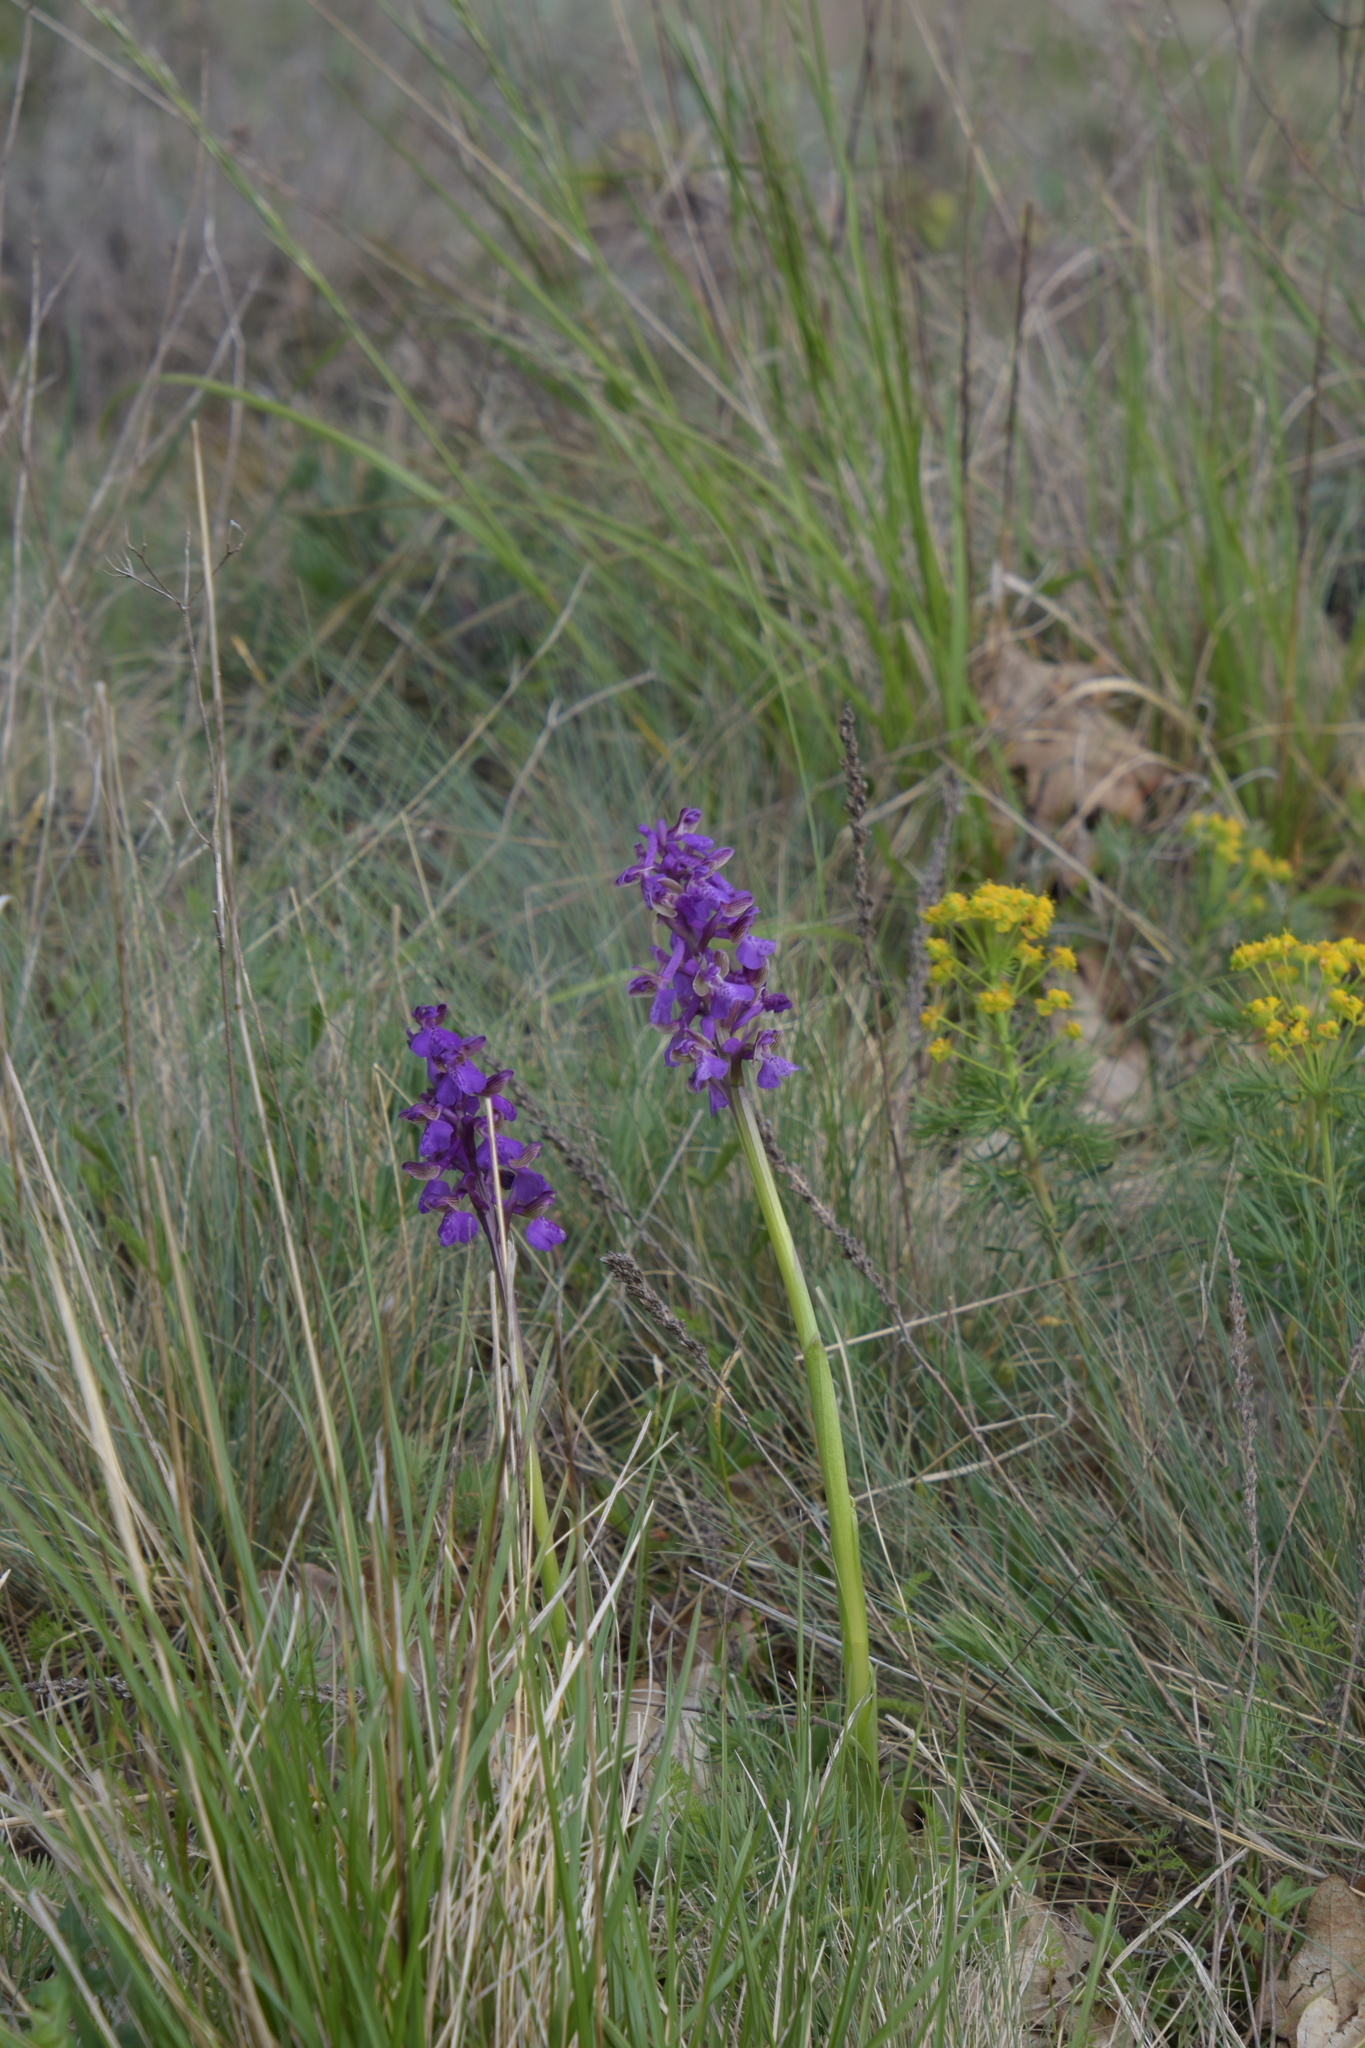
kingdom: Plantae
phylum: Tracheophyta
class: Liliopsida
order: Asparagales
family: Orchidaceae
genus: Anacamptis
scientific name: Anacamptis morio
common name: Green-winged orchid
